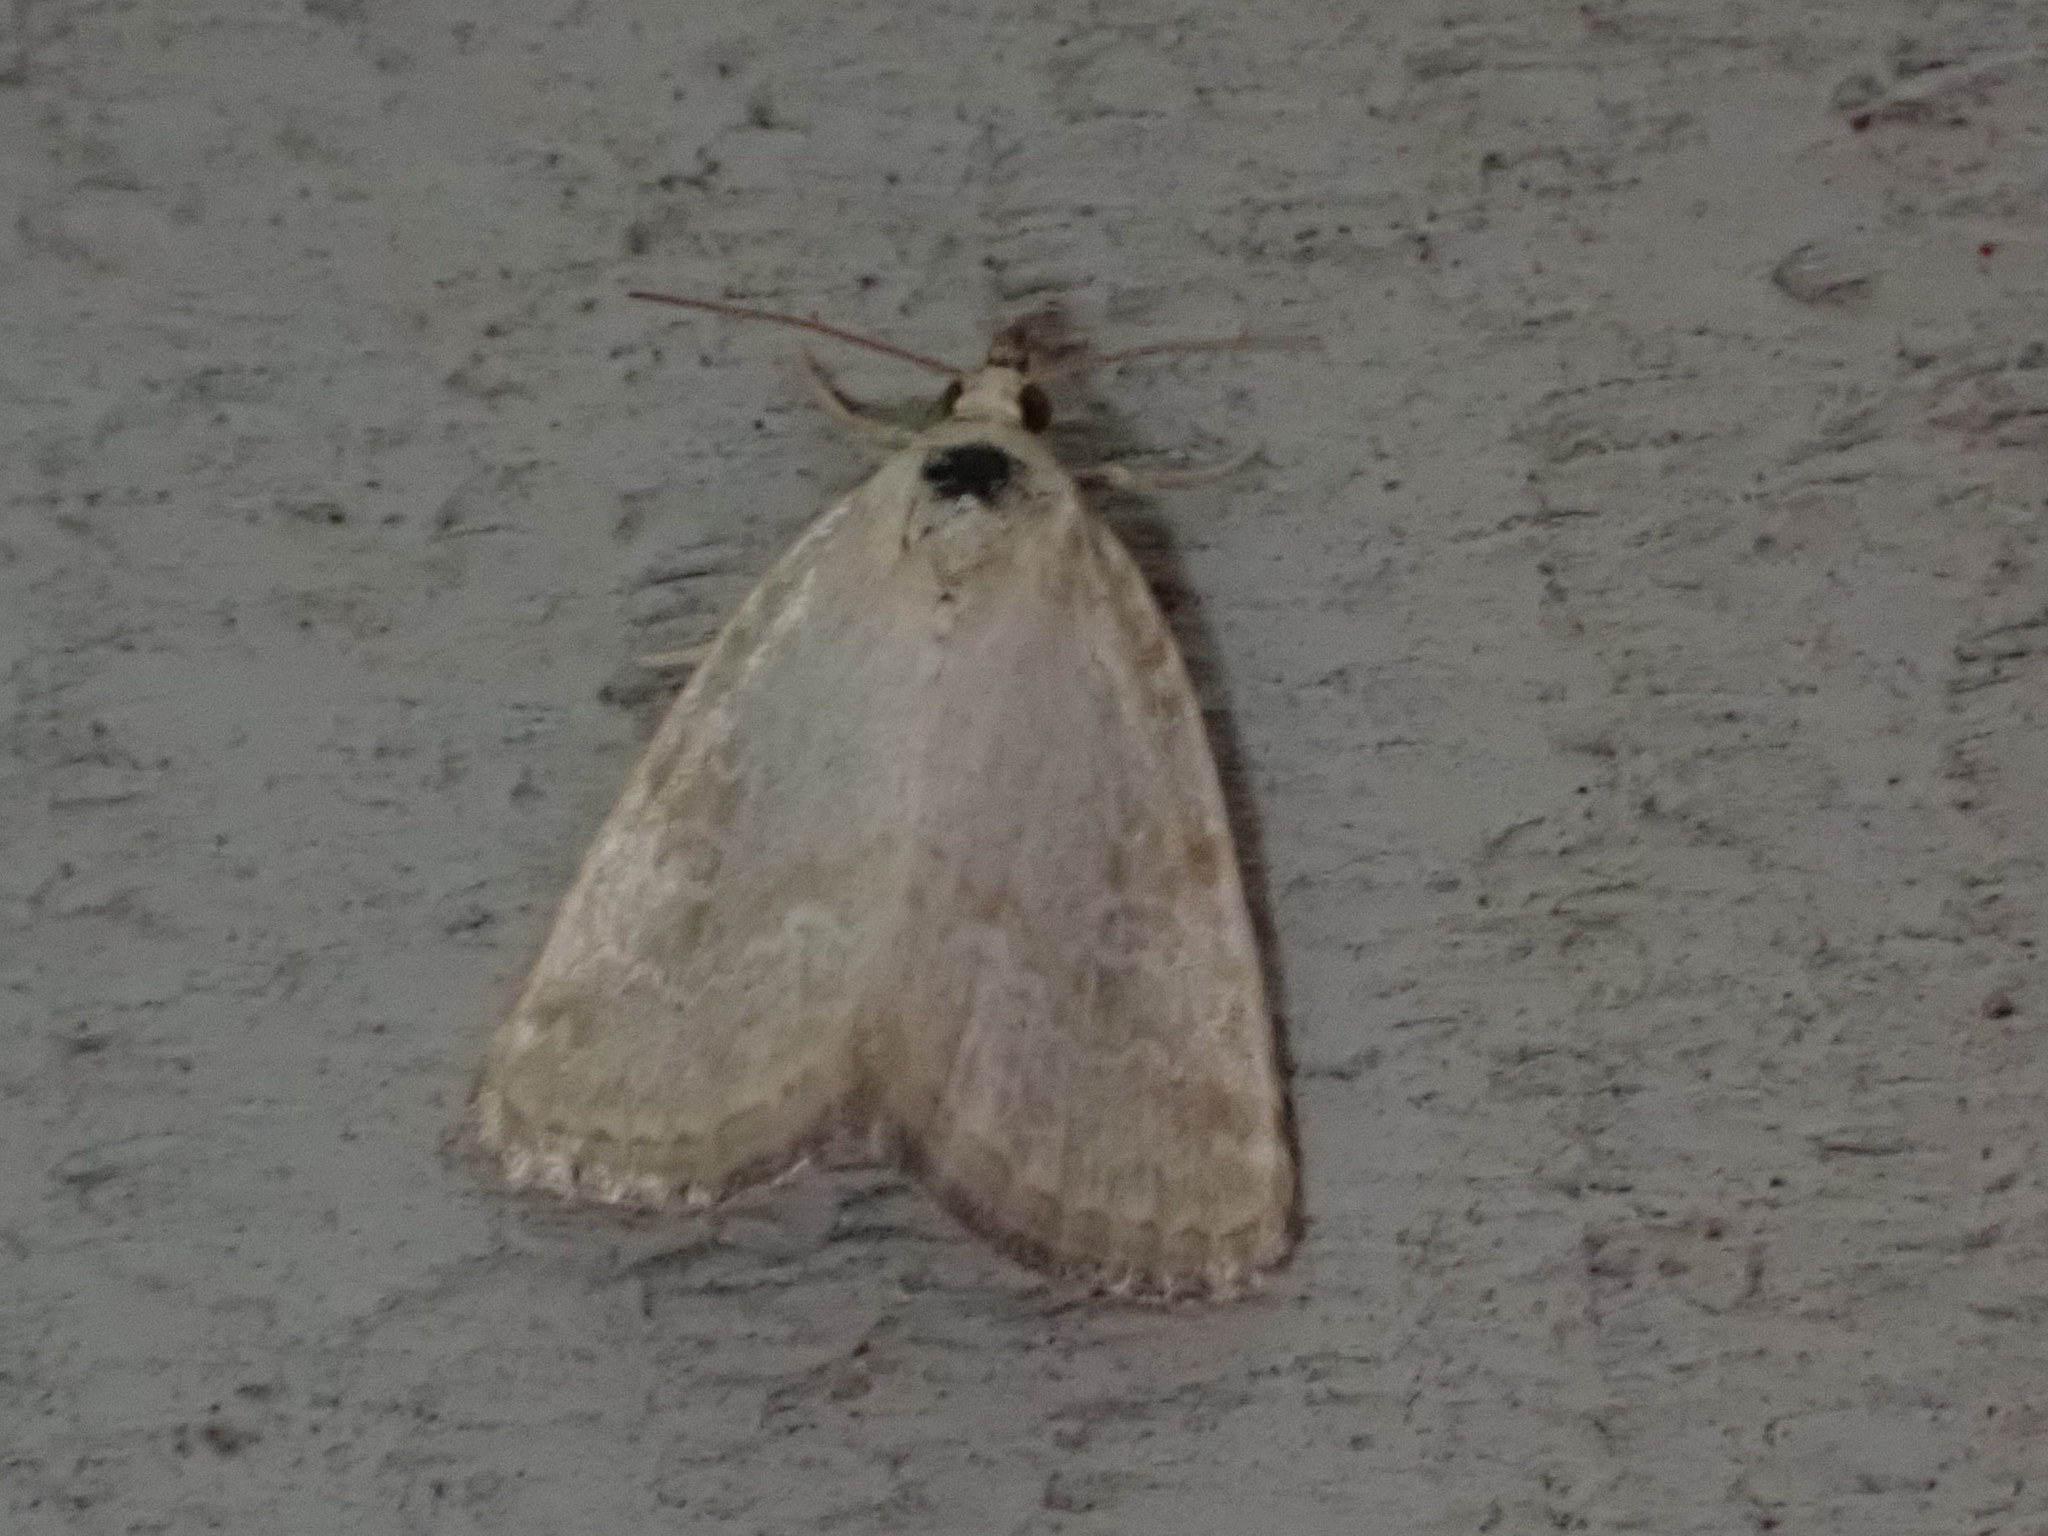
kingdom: Animalia
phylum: Arthropoda
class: Insecta
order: Lepidoptera
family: Noctuidae
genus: Protodeltote
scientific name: Protodeltote albidula
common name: Pale glyph
